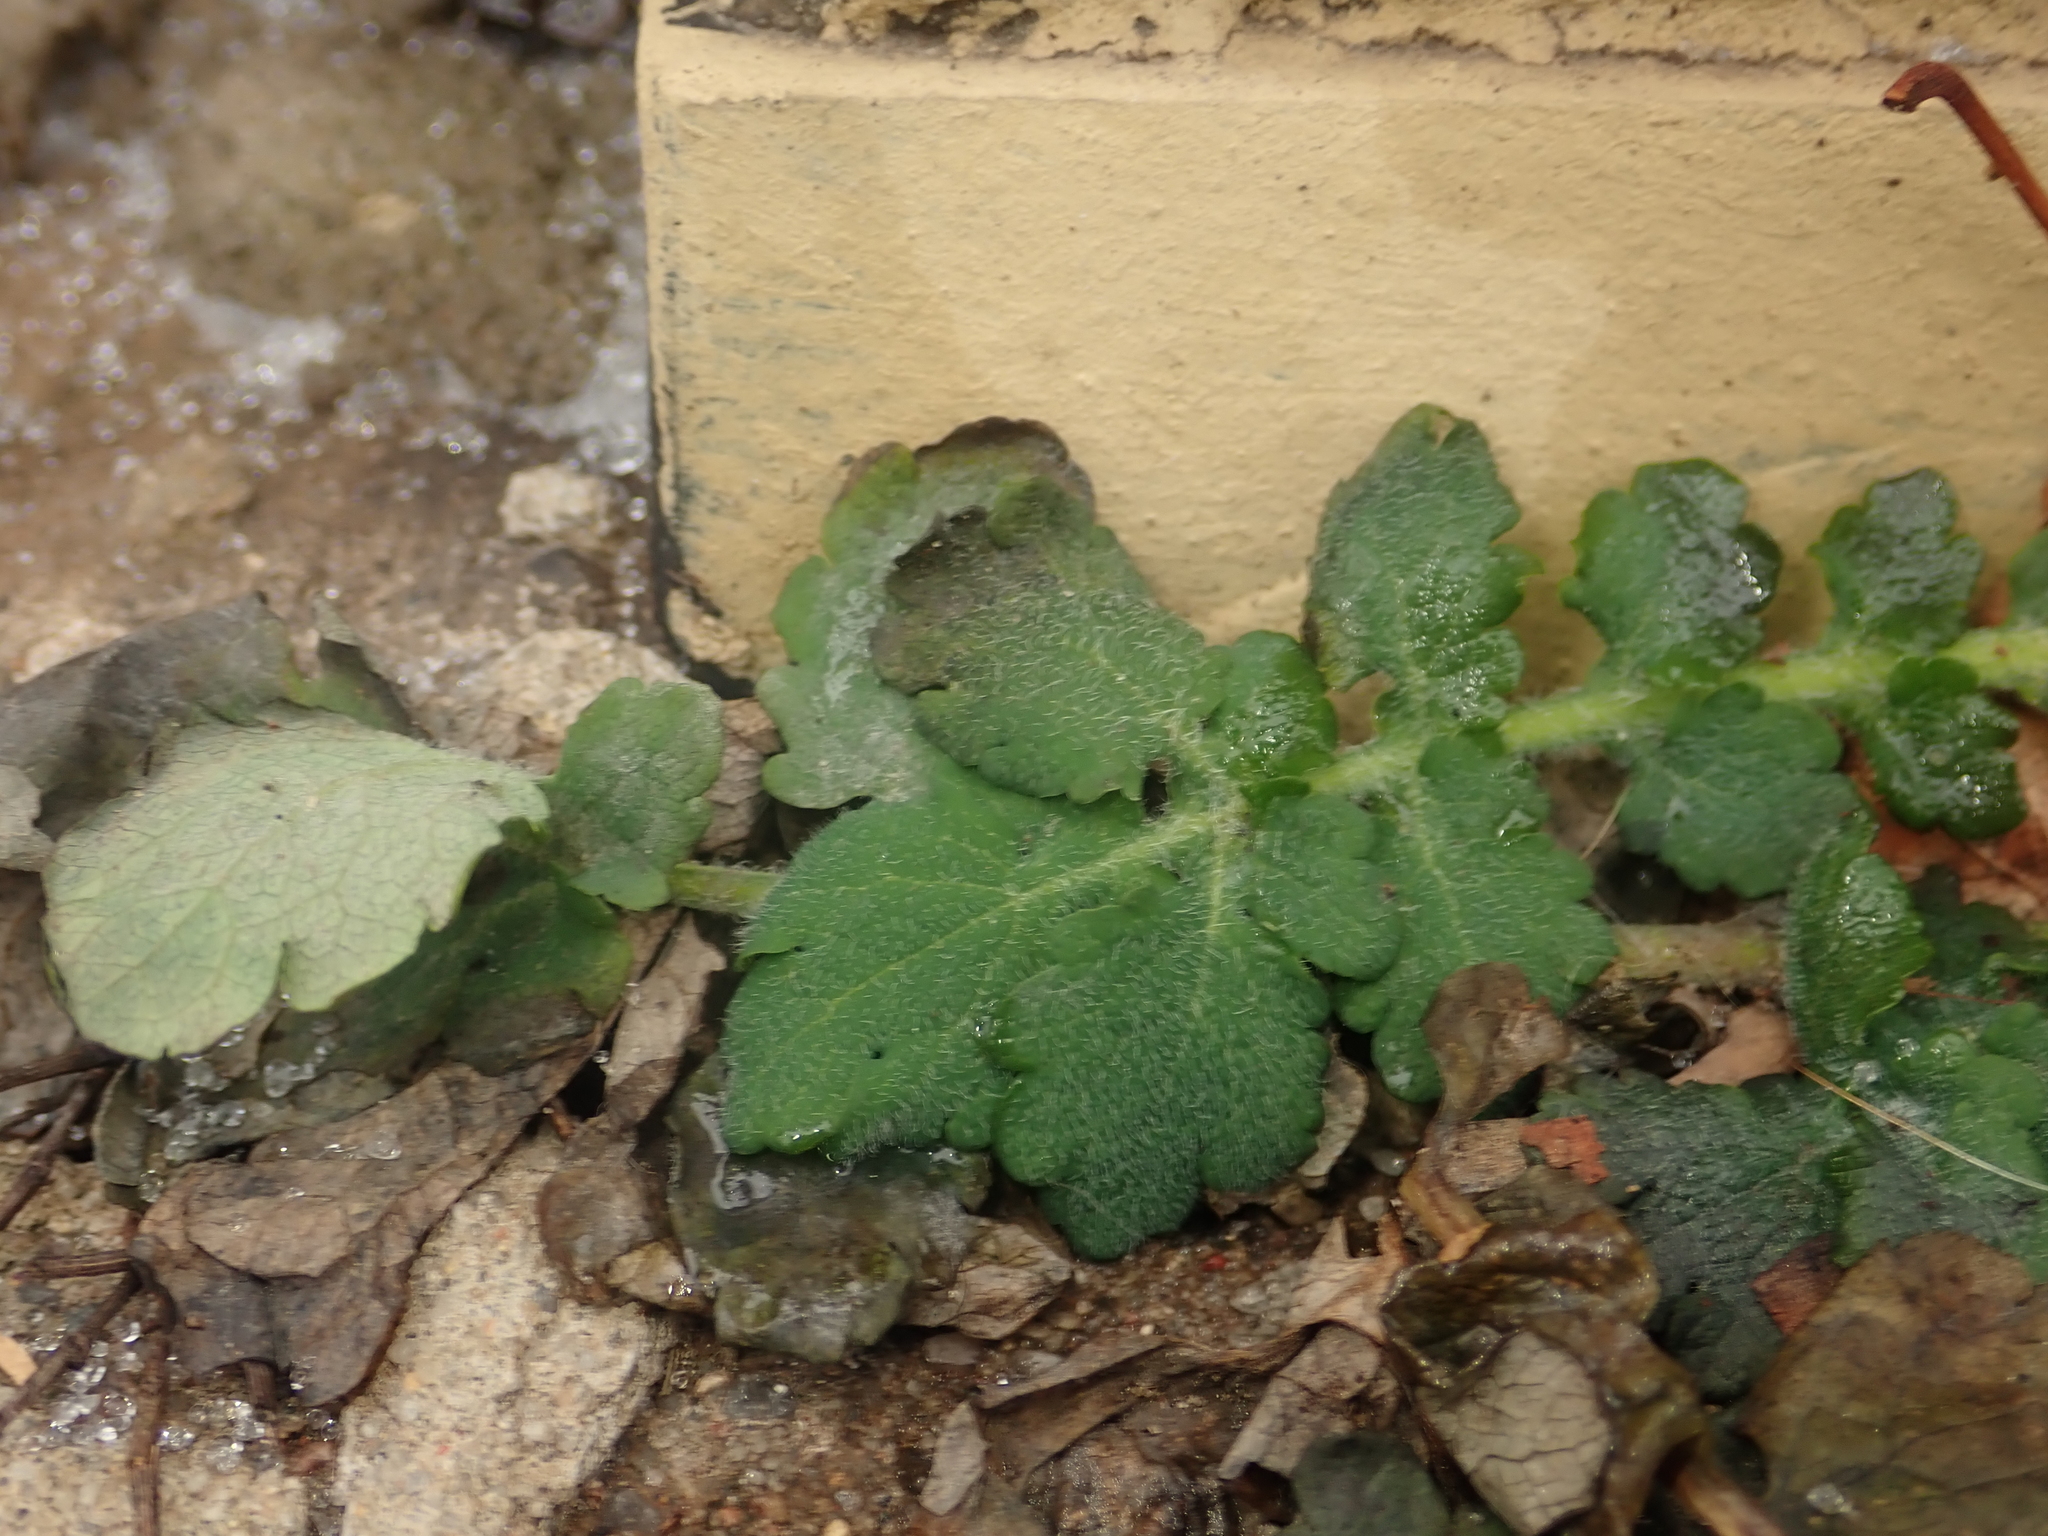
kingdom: Plantae
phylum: Tracheophyta
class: Magnoliopsida
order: Ranunculales
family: Papaveraceae
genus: Chelidonium
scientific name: Chelidonium majus
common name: Greater celandine
